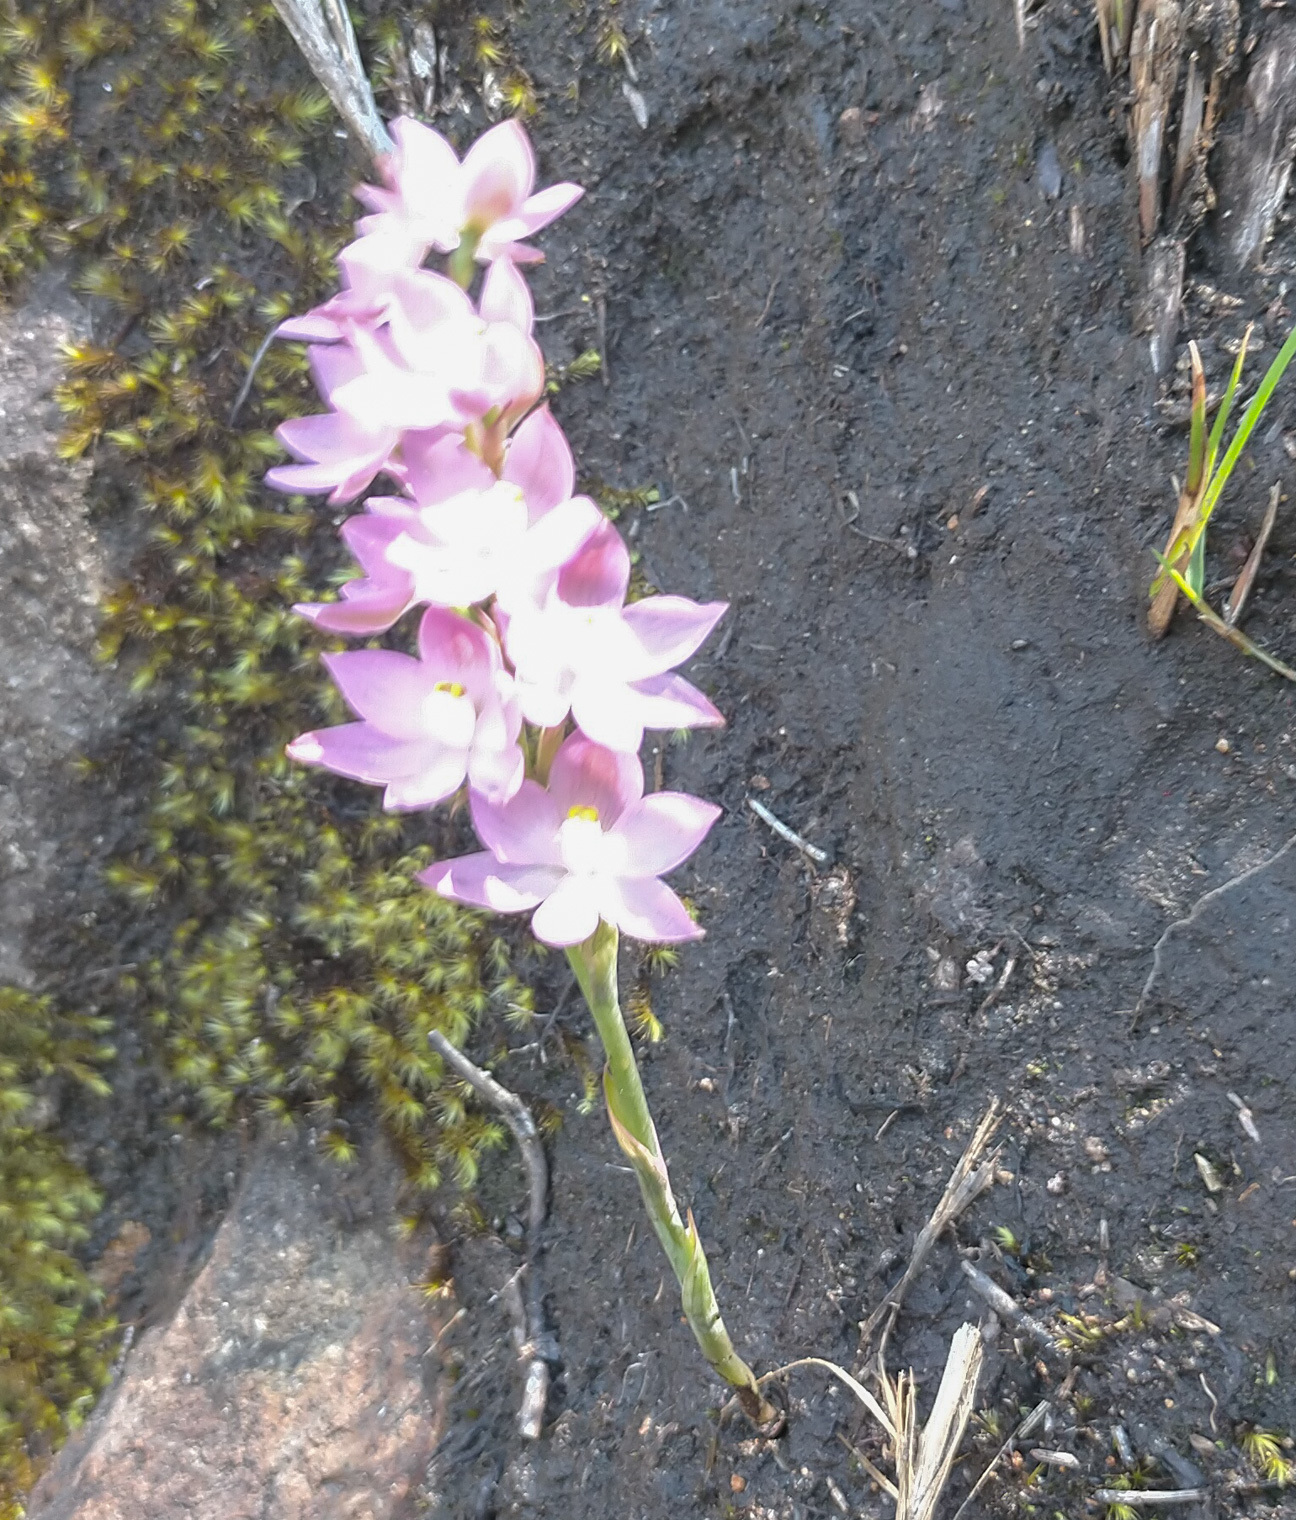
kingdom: Plantae
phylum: Tracheophyta
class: Liliopsida
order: Asparagales
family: Orchidaceae
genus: Thelymitra
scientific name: Thelymitra fragrans
